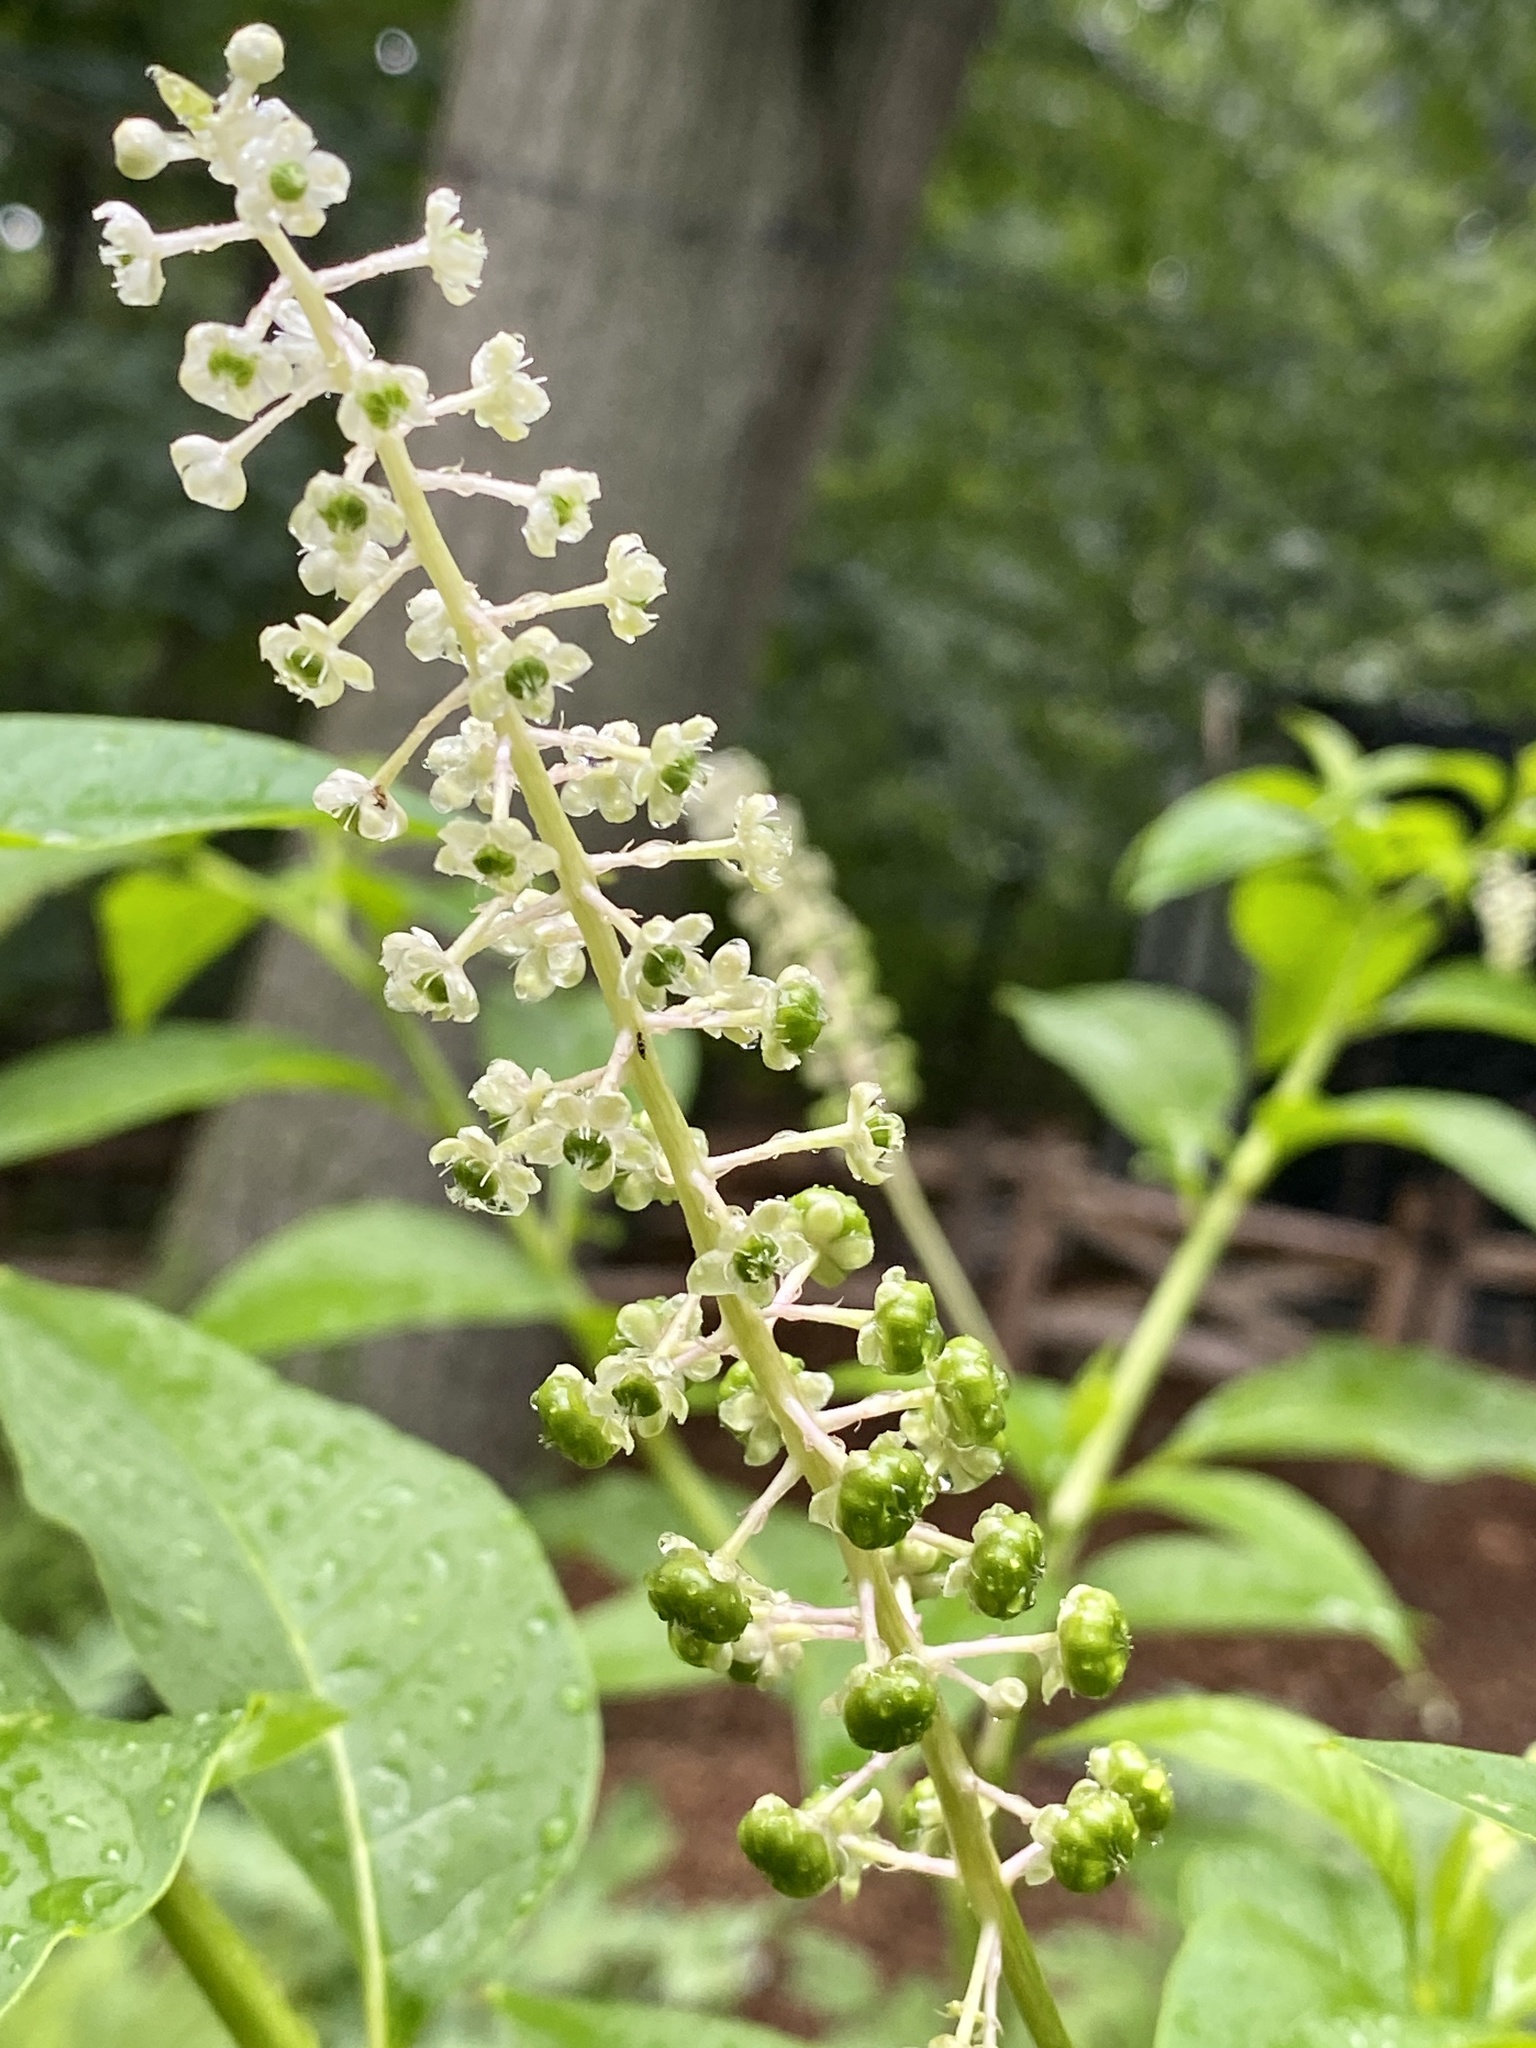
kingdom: Plantae
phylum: Tracheophyta
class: Magnoliopsida
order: Caryophyllales
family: Phytolaccaceae
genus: Phytolacca
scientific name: Phytolacca americana
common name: American pokeweed
